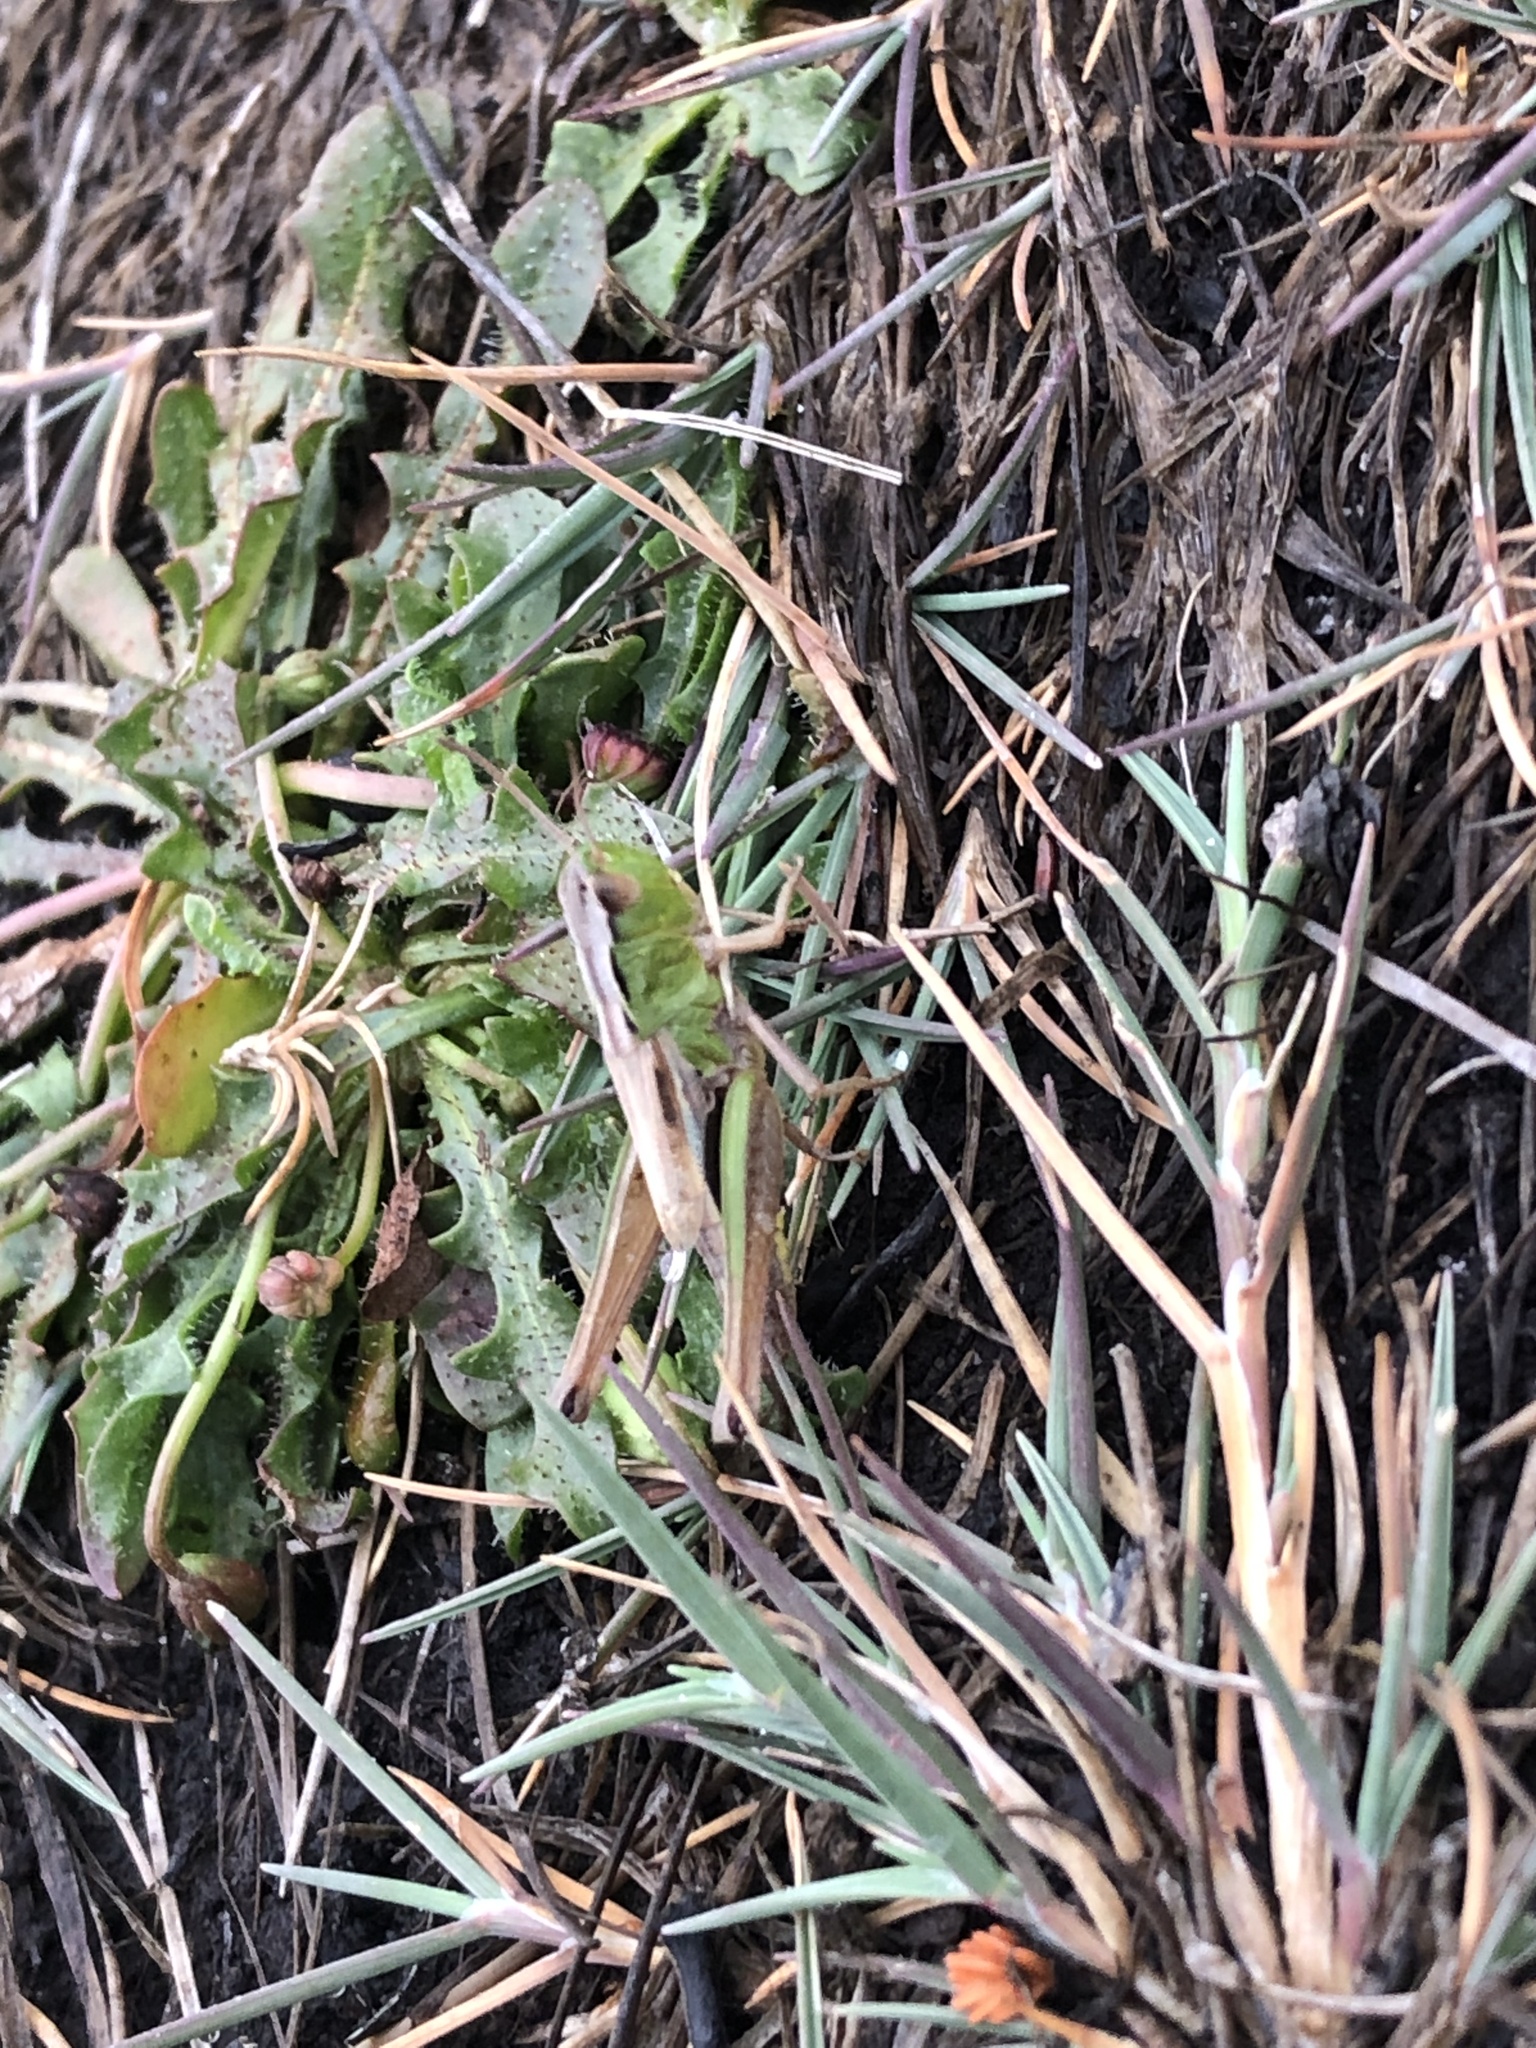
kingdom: Animalia
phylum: Arthropoda
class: Insecta
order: Orthoptera
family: Acrididae
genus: Pseudochorthippus
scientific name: Pseudochorthippus parallelus
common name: Meadow grasshopper
